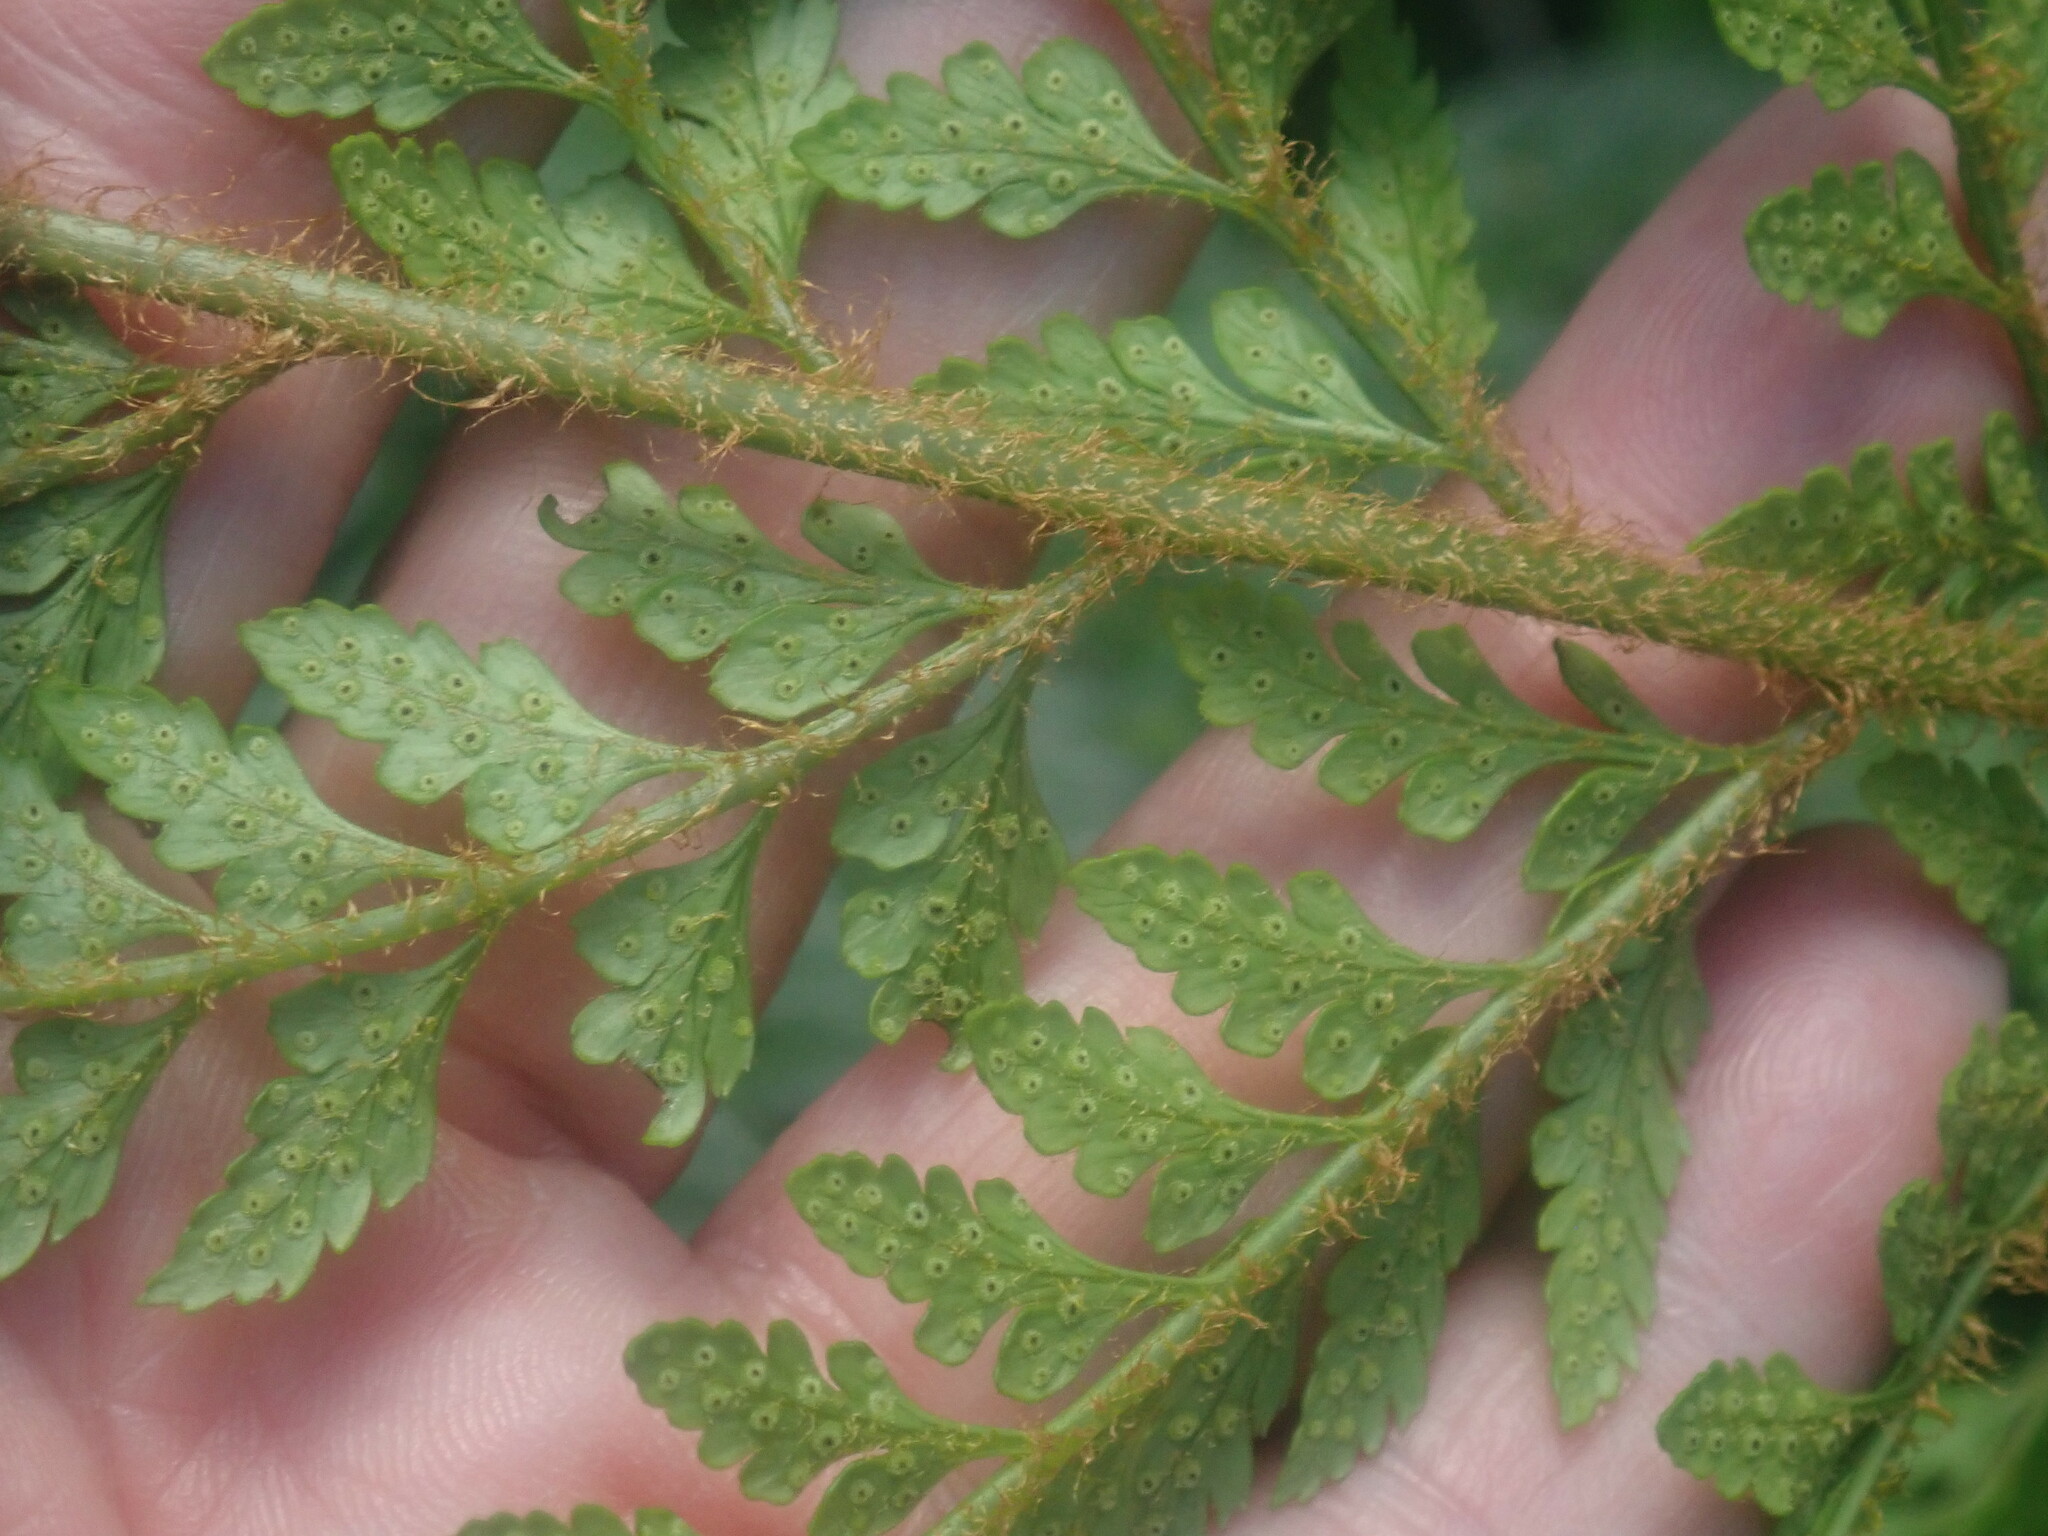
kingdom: Plantae
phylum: Tracheophyta
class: Polypodiopsida
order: Polypodiales
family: Dryopteridaceae
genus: Polystichum
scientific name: Polystichum proliferum
